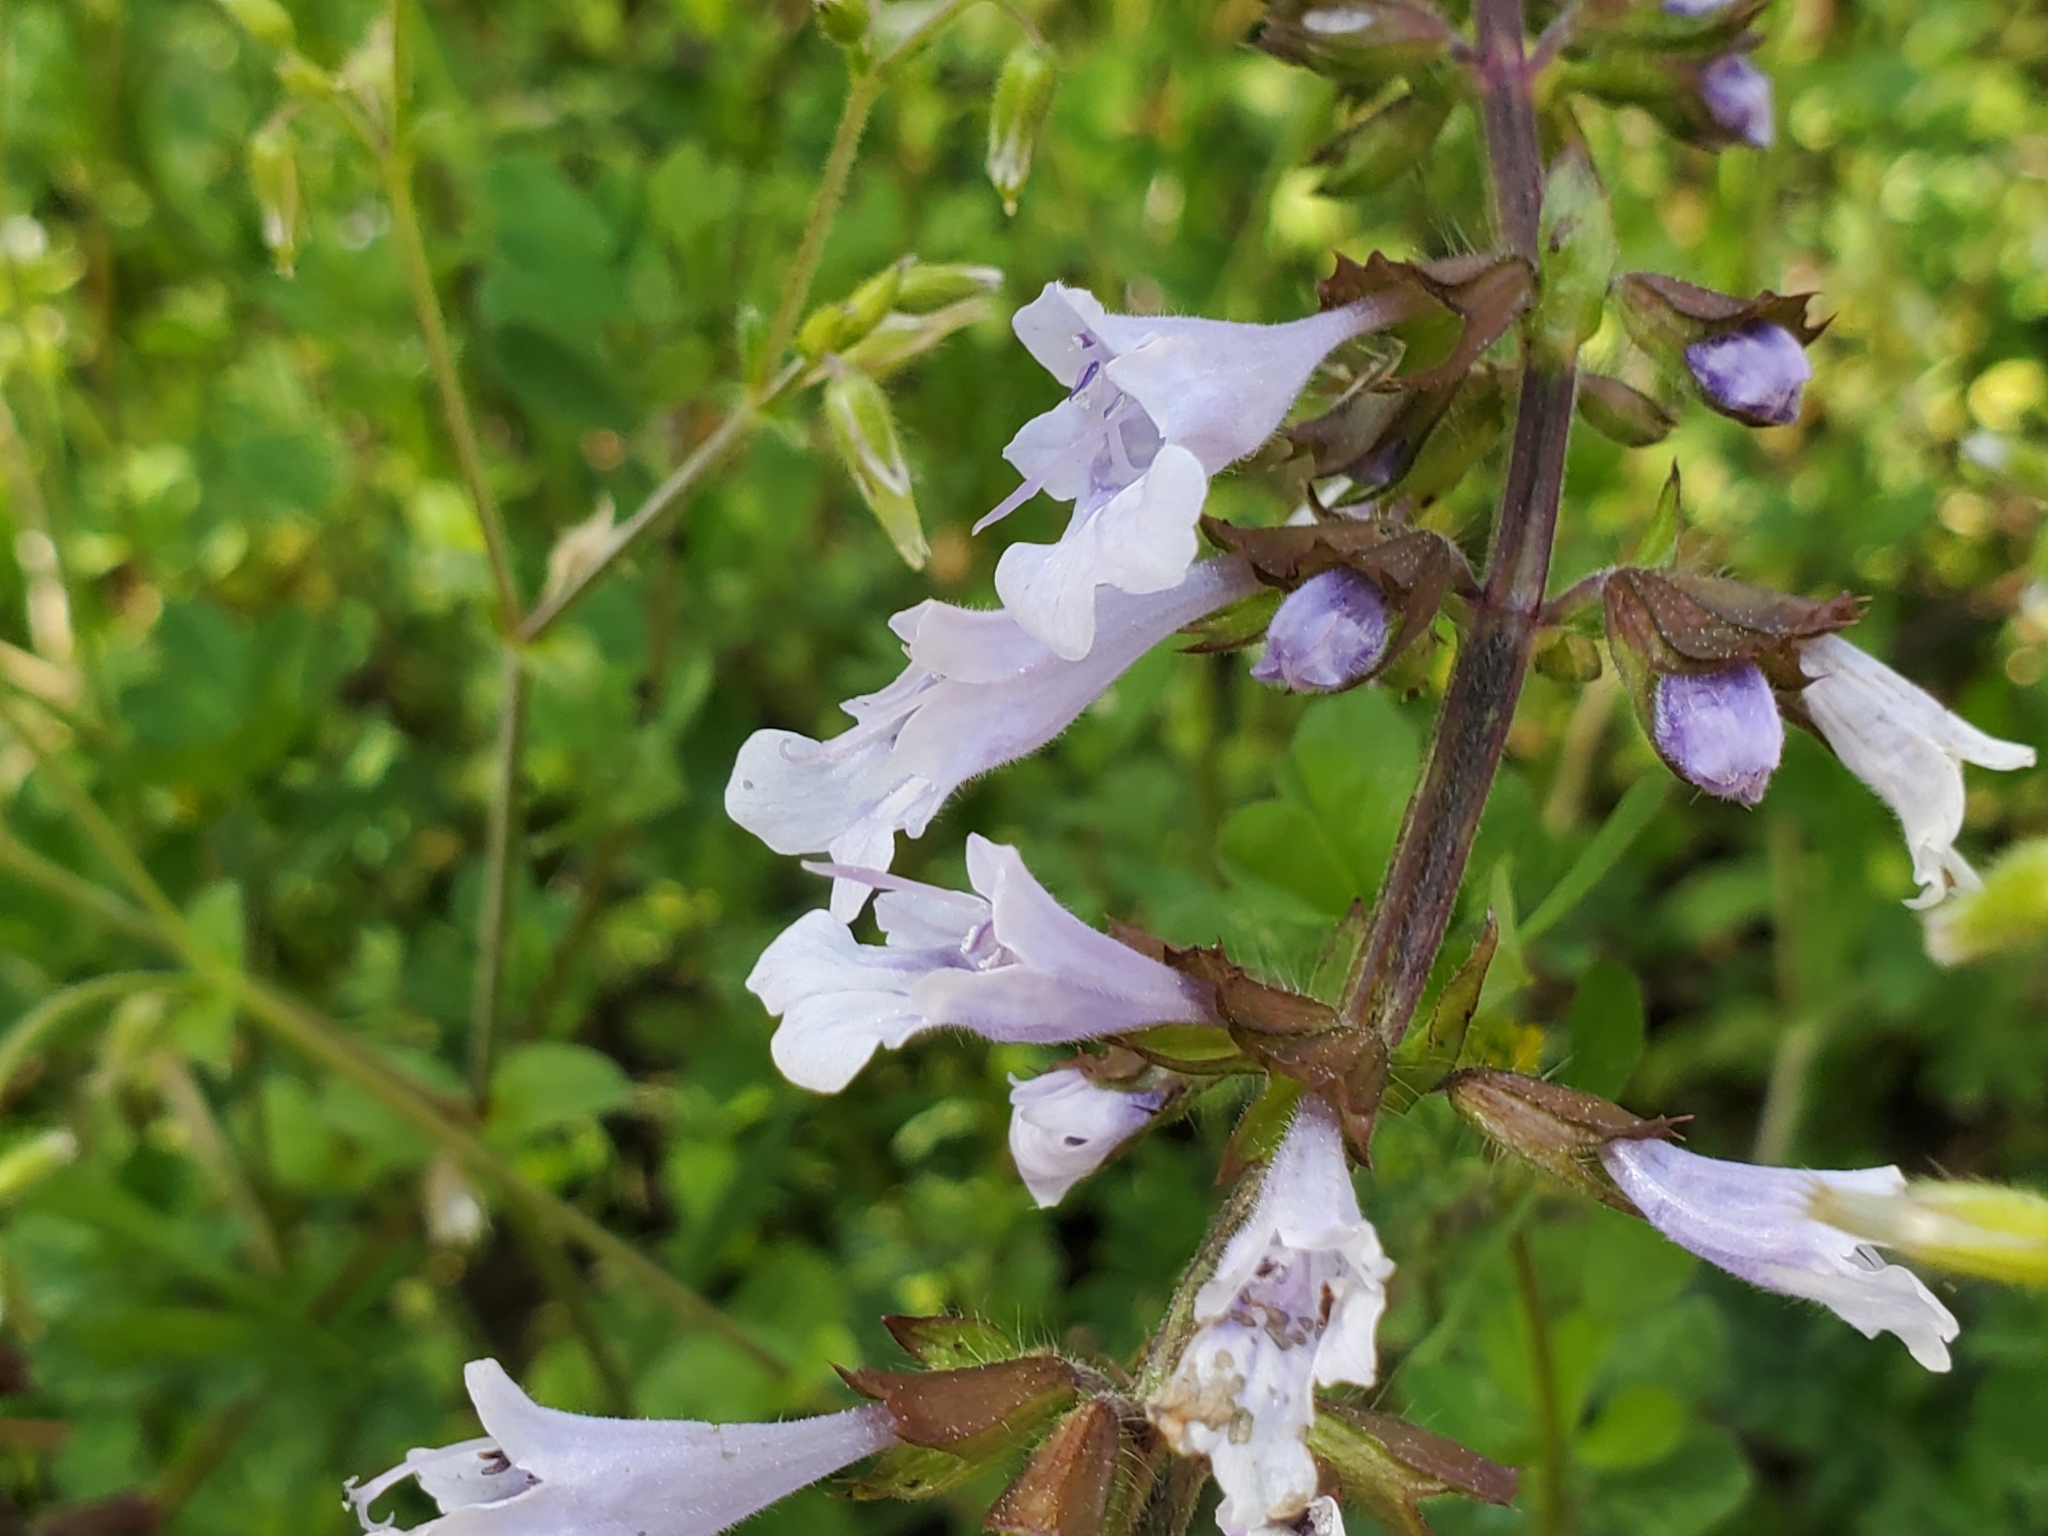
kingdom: Plantae
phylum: Tracheophyta
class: Magnoliopsida
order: Lamiales
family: Lamiaceae
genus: Salvia
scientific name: Salvia lyrata
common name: Cancerweed
